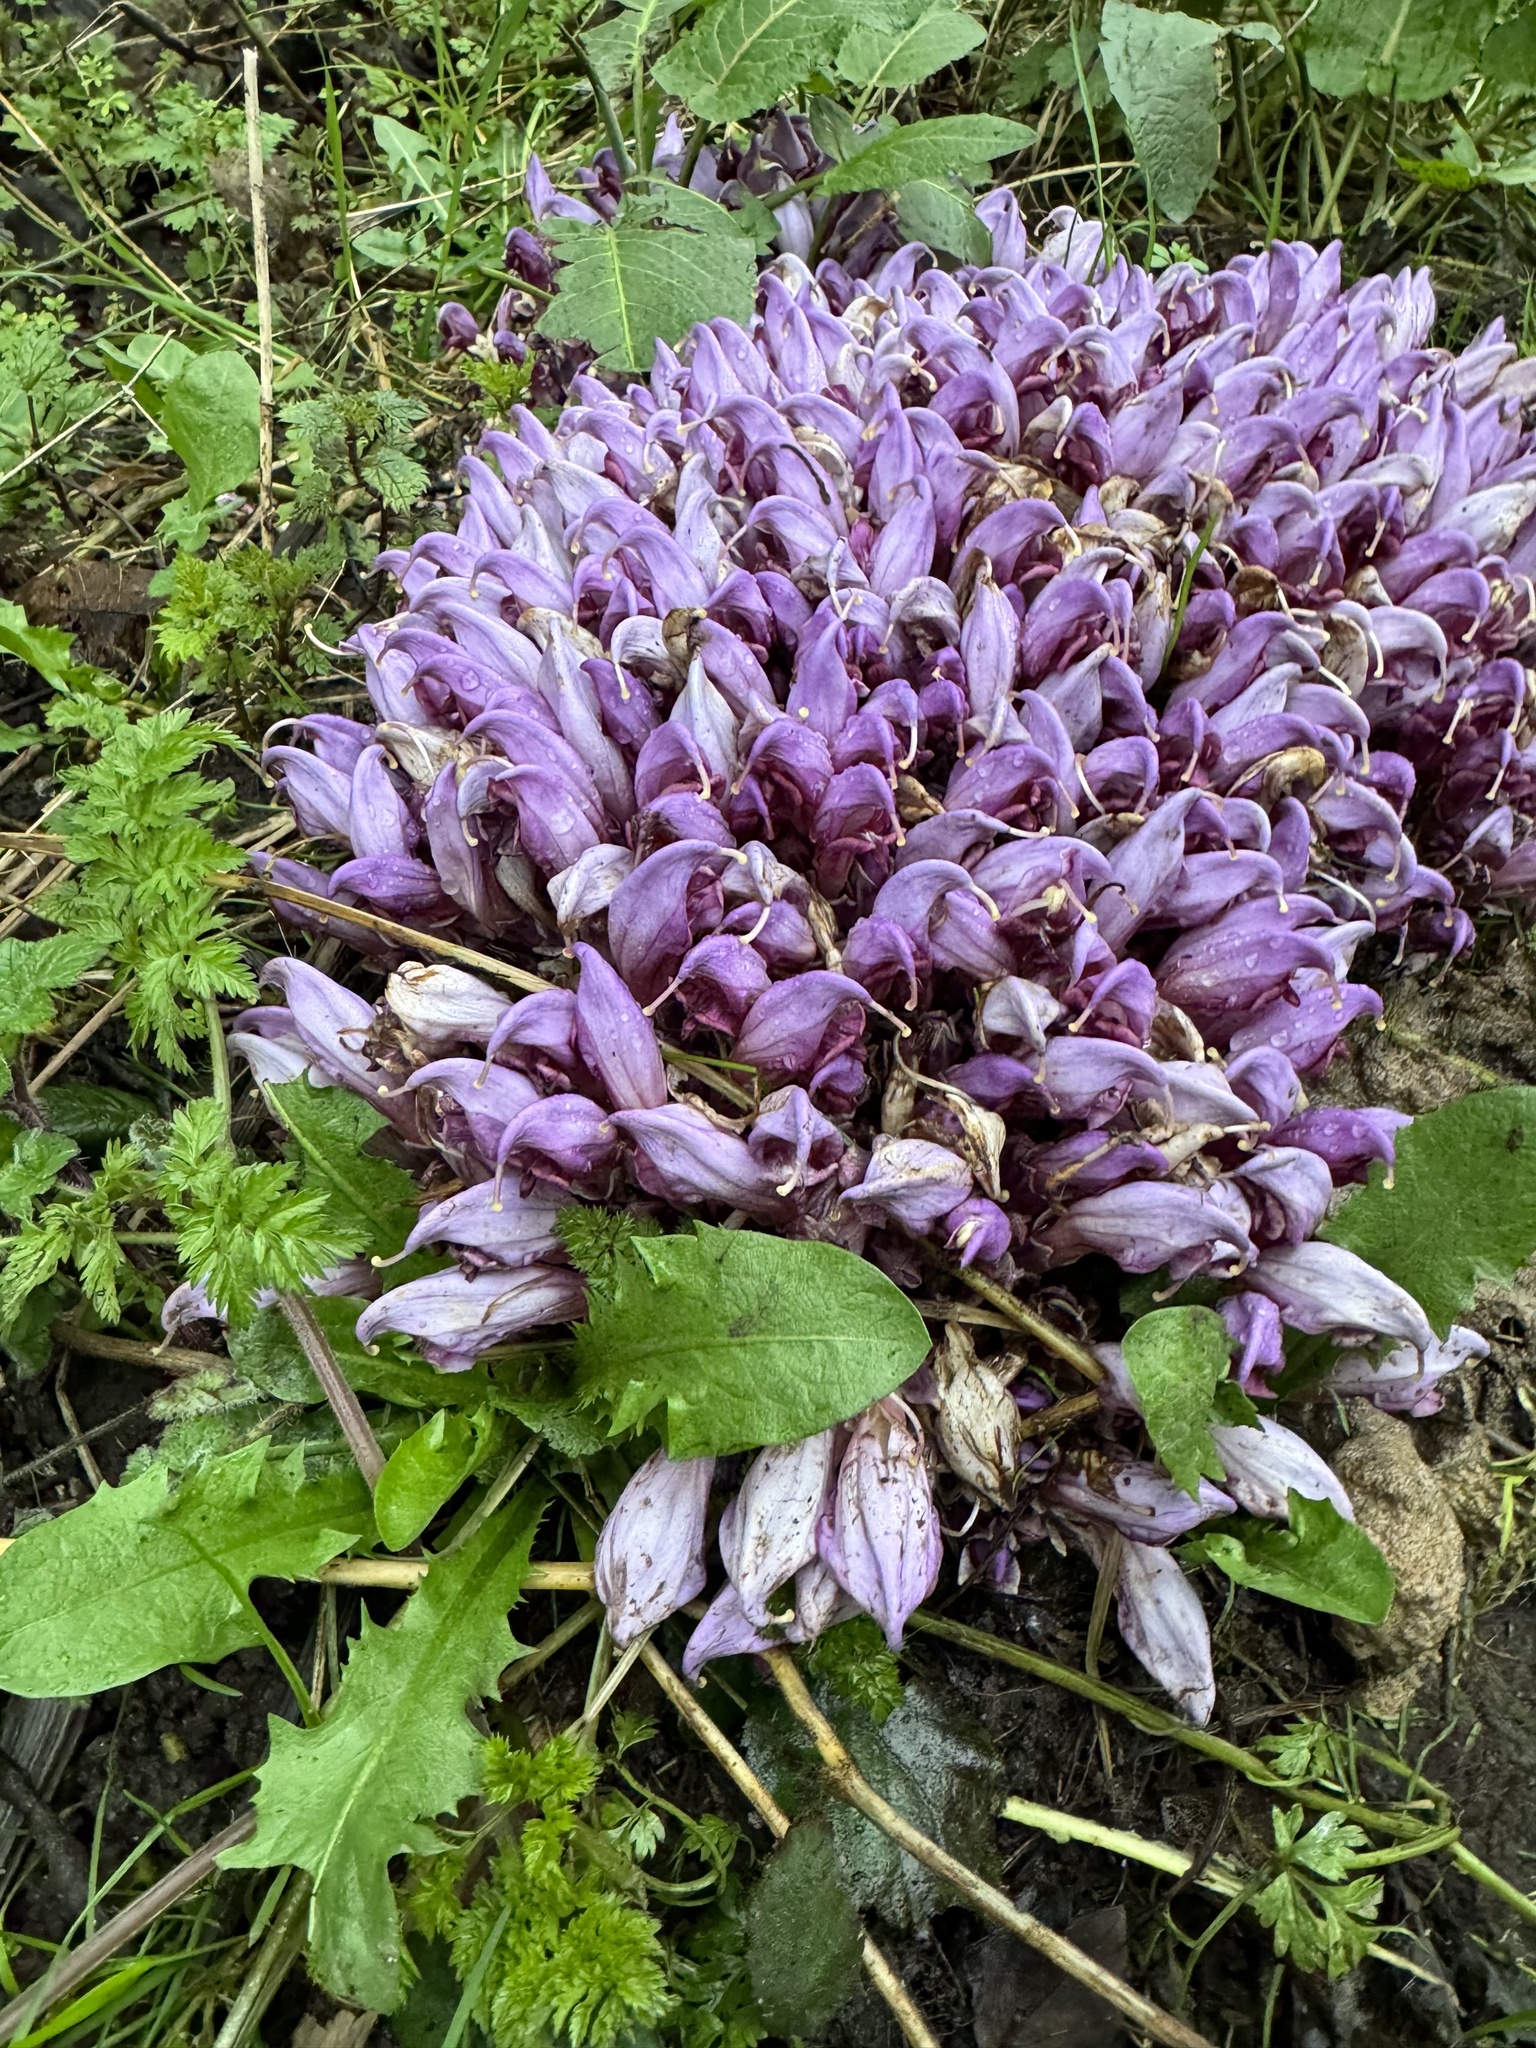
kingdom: Plantae
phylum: Tracheophyta
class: Magnoliopsida
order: Lamiales
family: Orobanchaceae
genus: Lathraea
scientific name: Lathraea clandestina
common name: Purple toothwort
